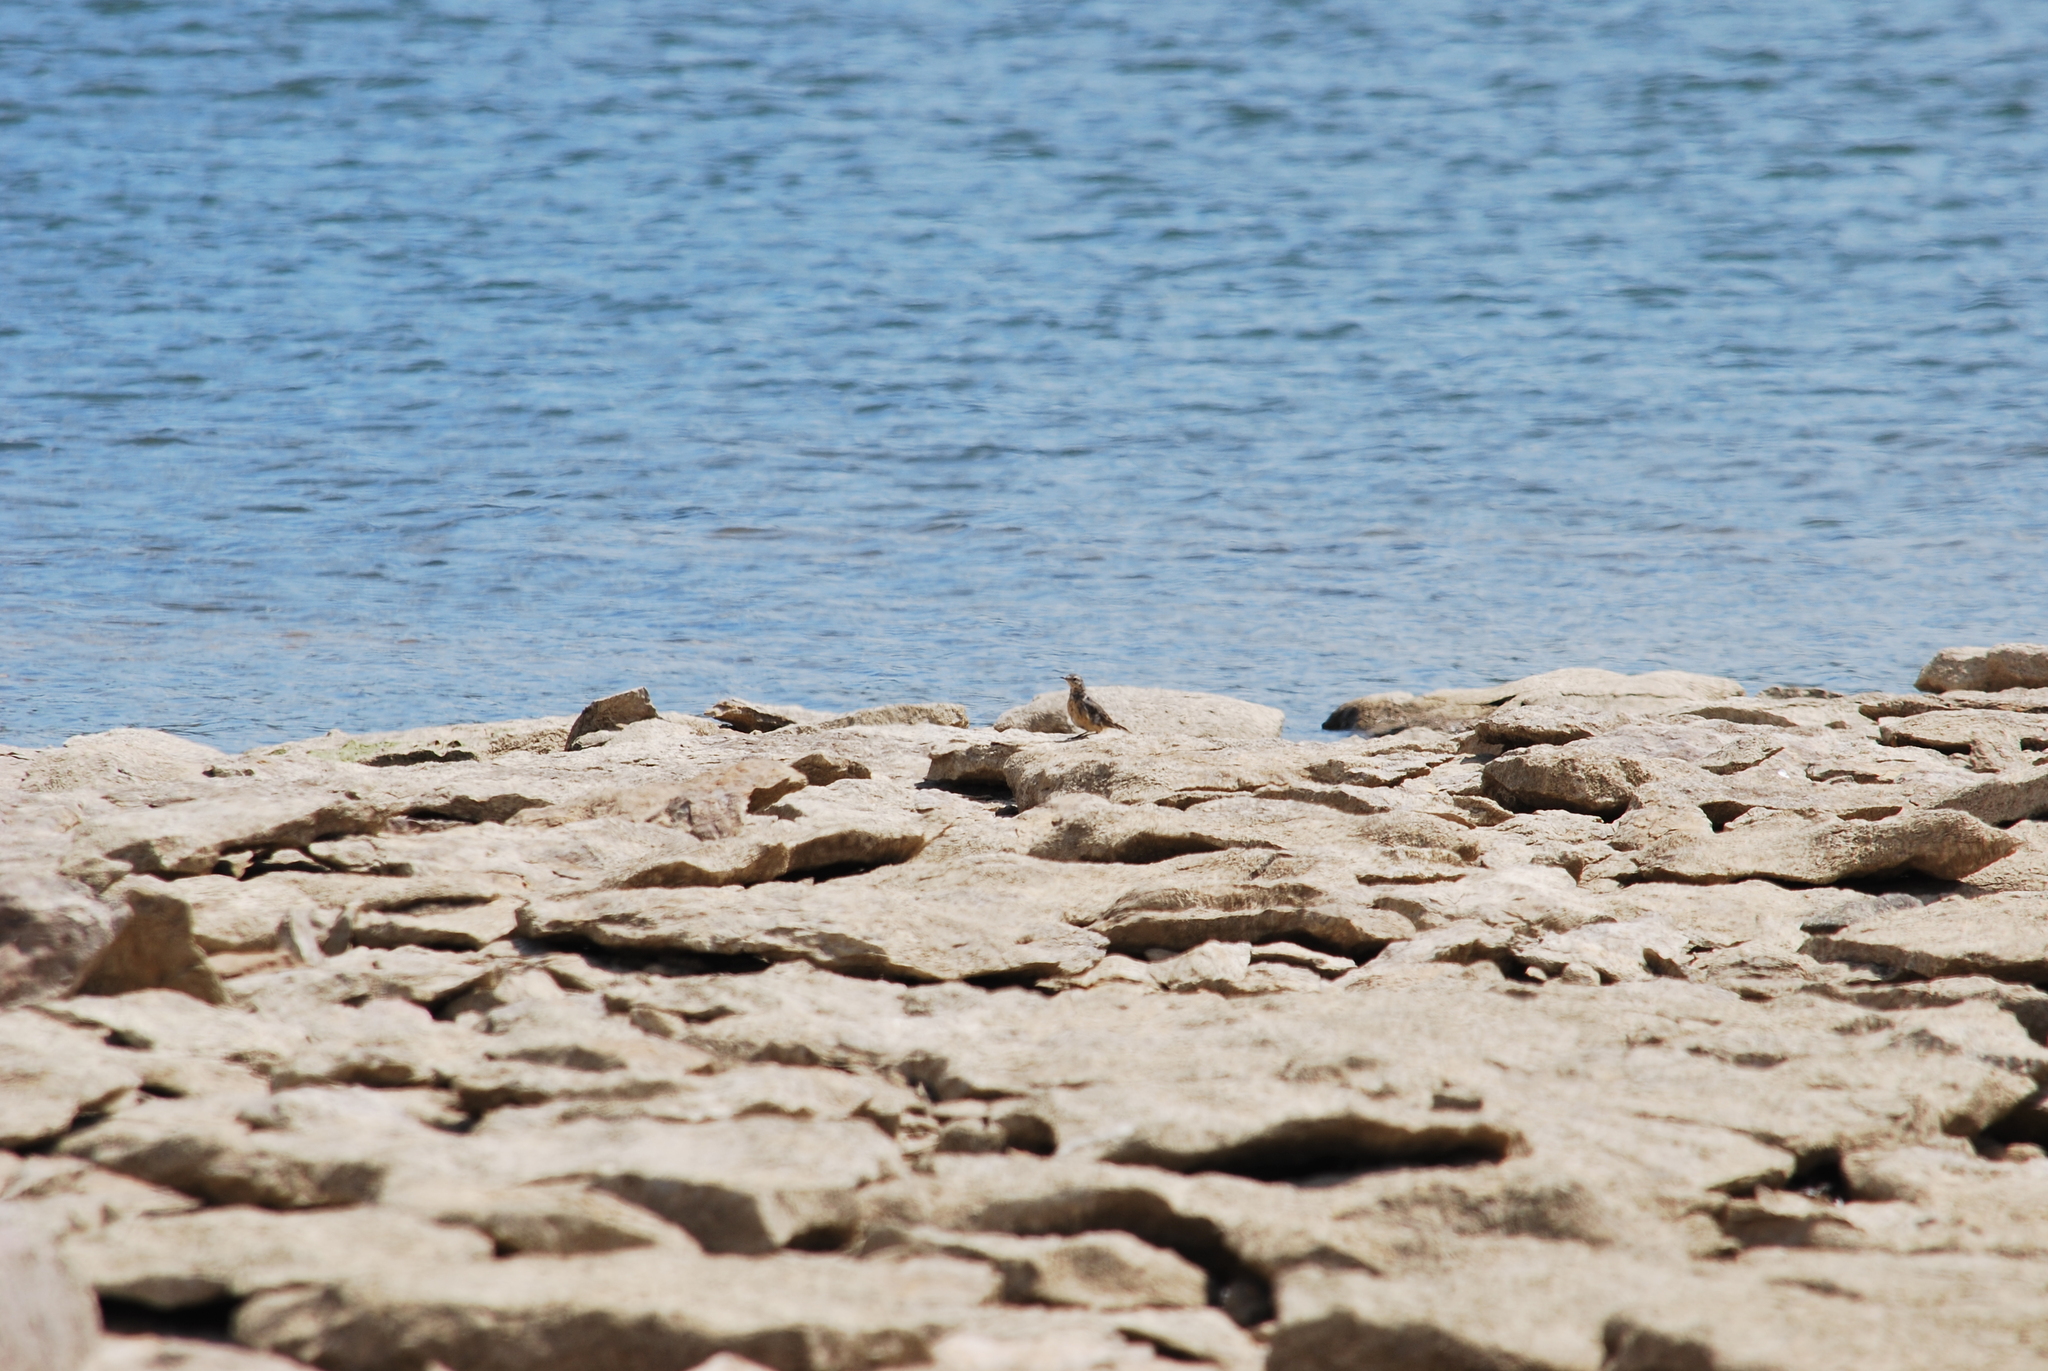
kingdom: Animalia
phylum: Chordata
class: Aves
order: Passeriformes
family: Motacillidae
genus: Anthus
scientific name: Anthus rubescens
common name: Buff-bellied pipit
